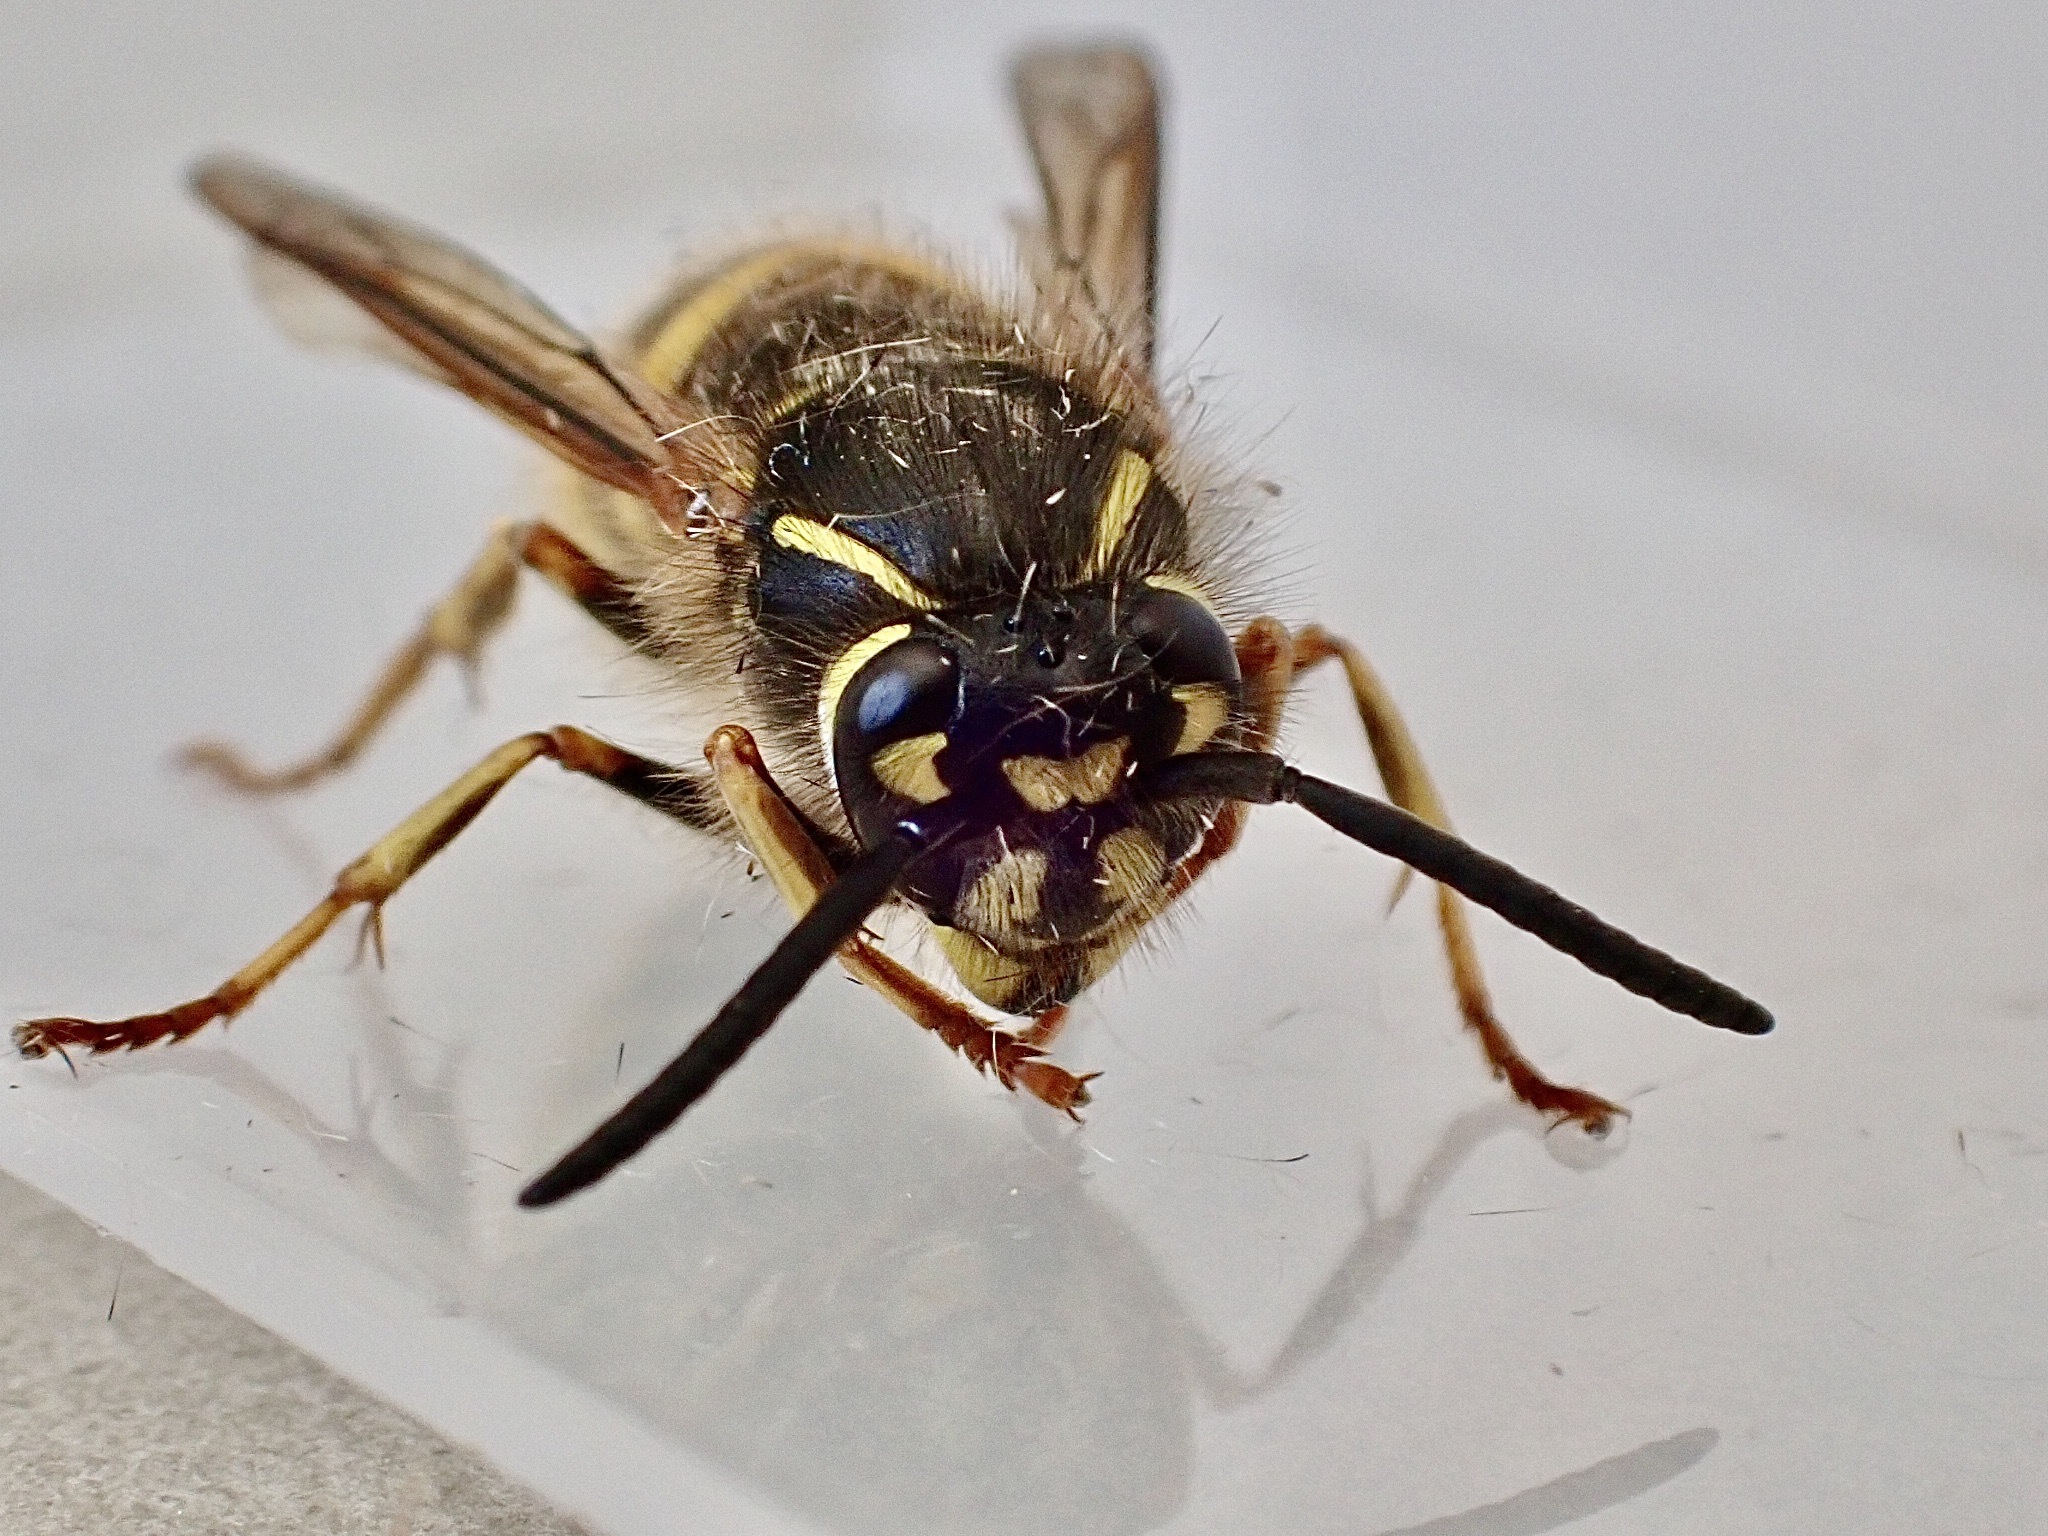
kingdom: Animalia
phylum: Arthropoda
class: Insecta
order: Hymenoptera
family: Vespidae
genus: Vespula
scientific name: Vespula vulgaris
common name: Common wasp
